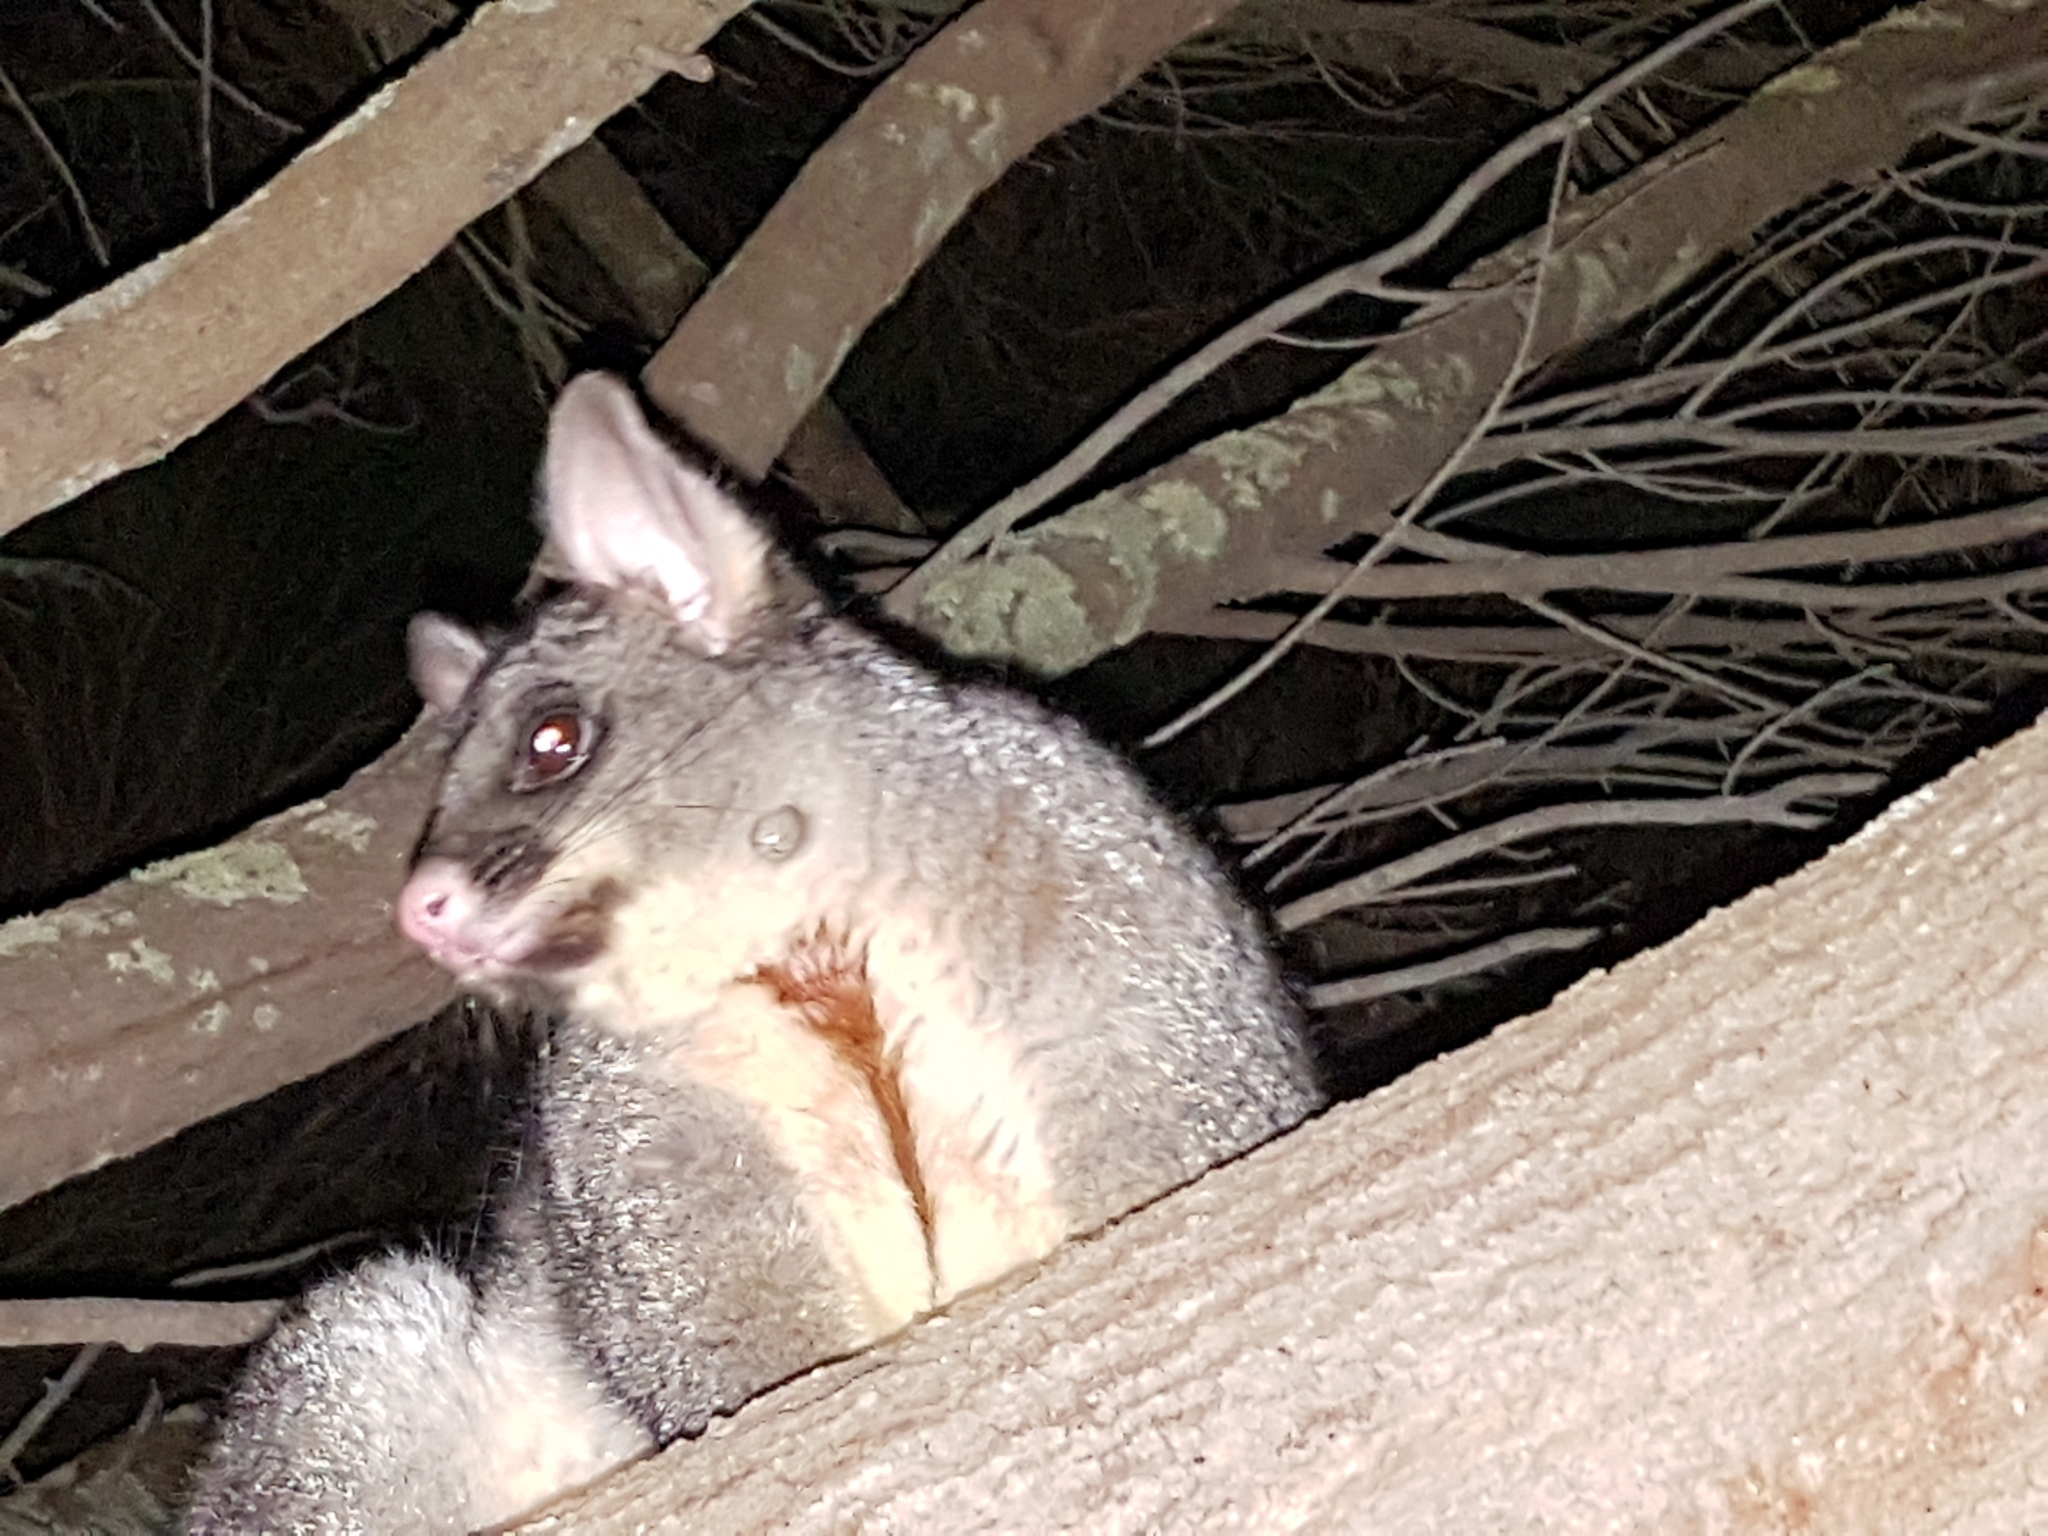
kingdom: Animalia
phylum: Chordata
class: Mammalia
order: Diprotodontia
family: Phalangeridae
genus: Trichosurus
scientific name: Trichosurus vulpecula
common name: Common brushtail
